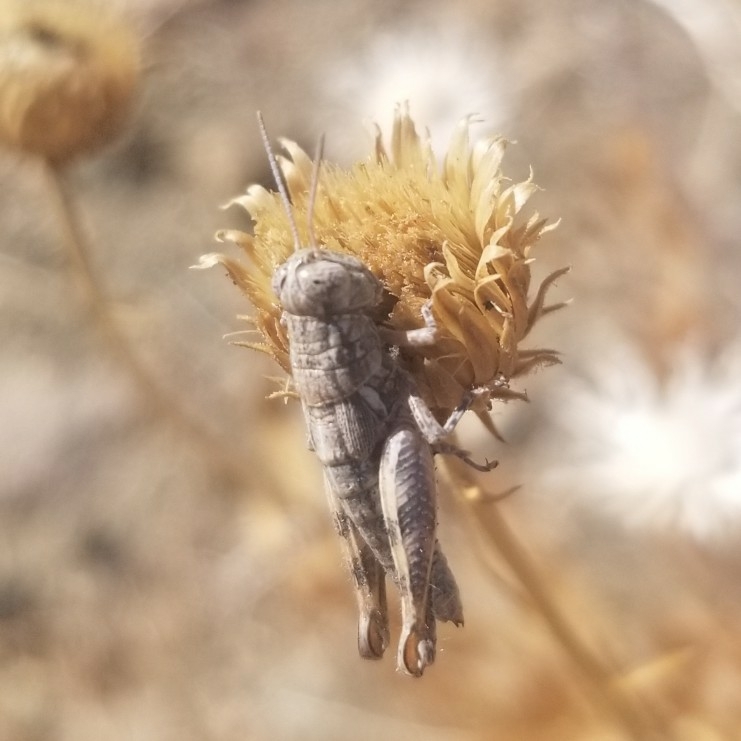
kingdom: Animalia
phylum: Arthropoda
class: Insecta
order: Orthoptera
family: Acrididae
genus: Melanoplus
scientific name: Melanoplus aridus
